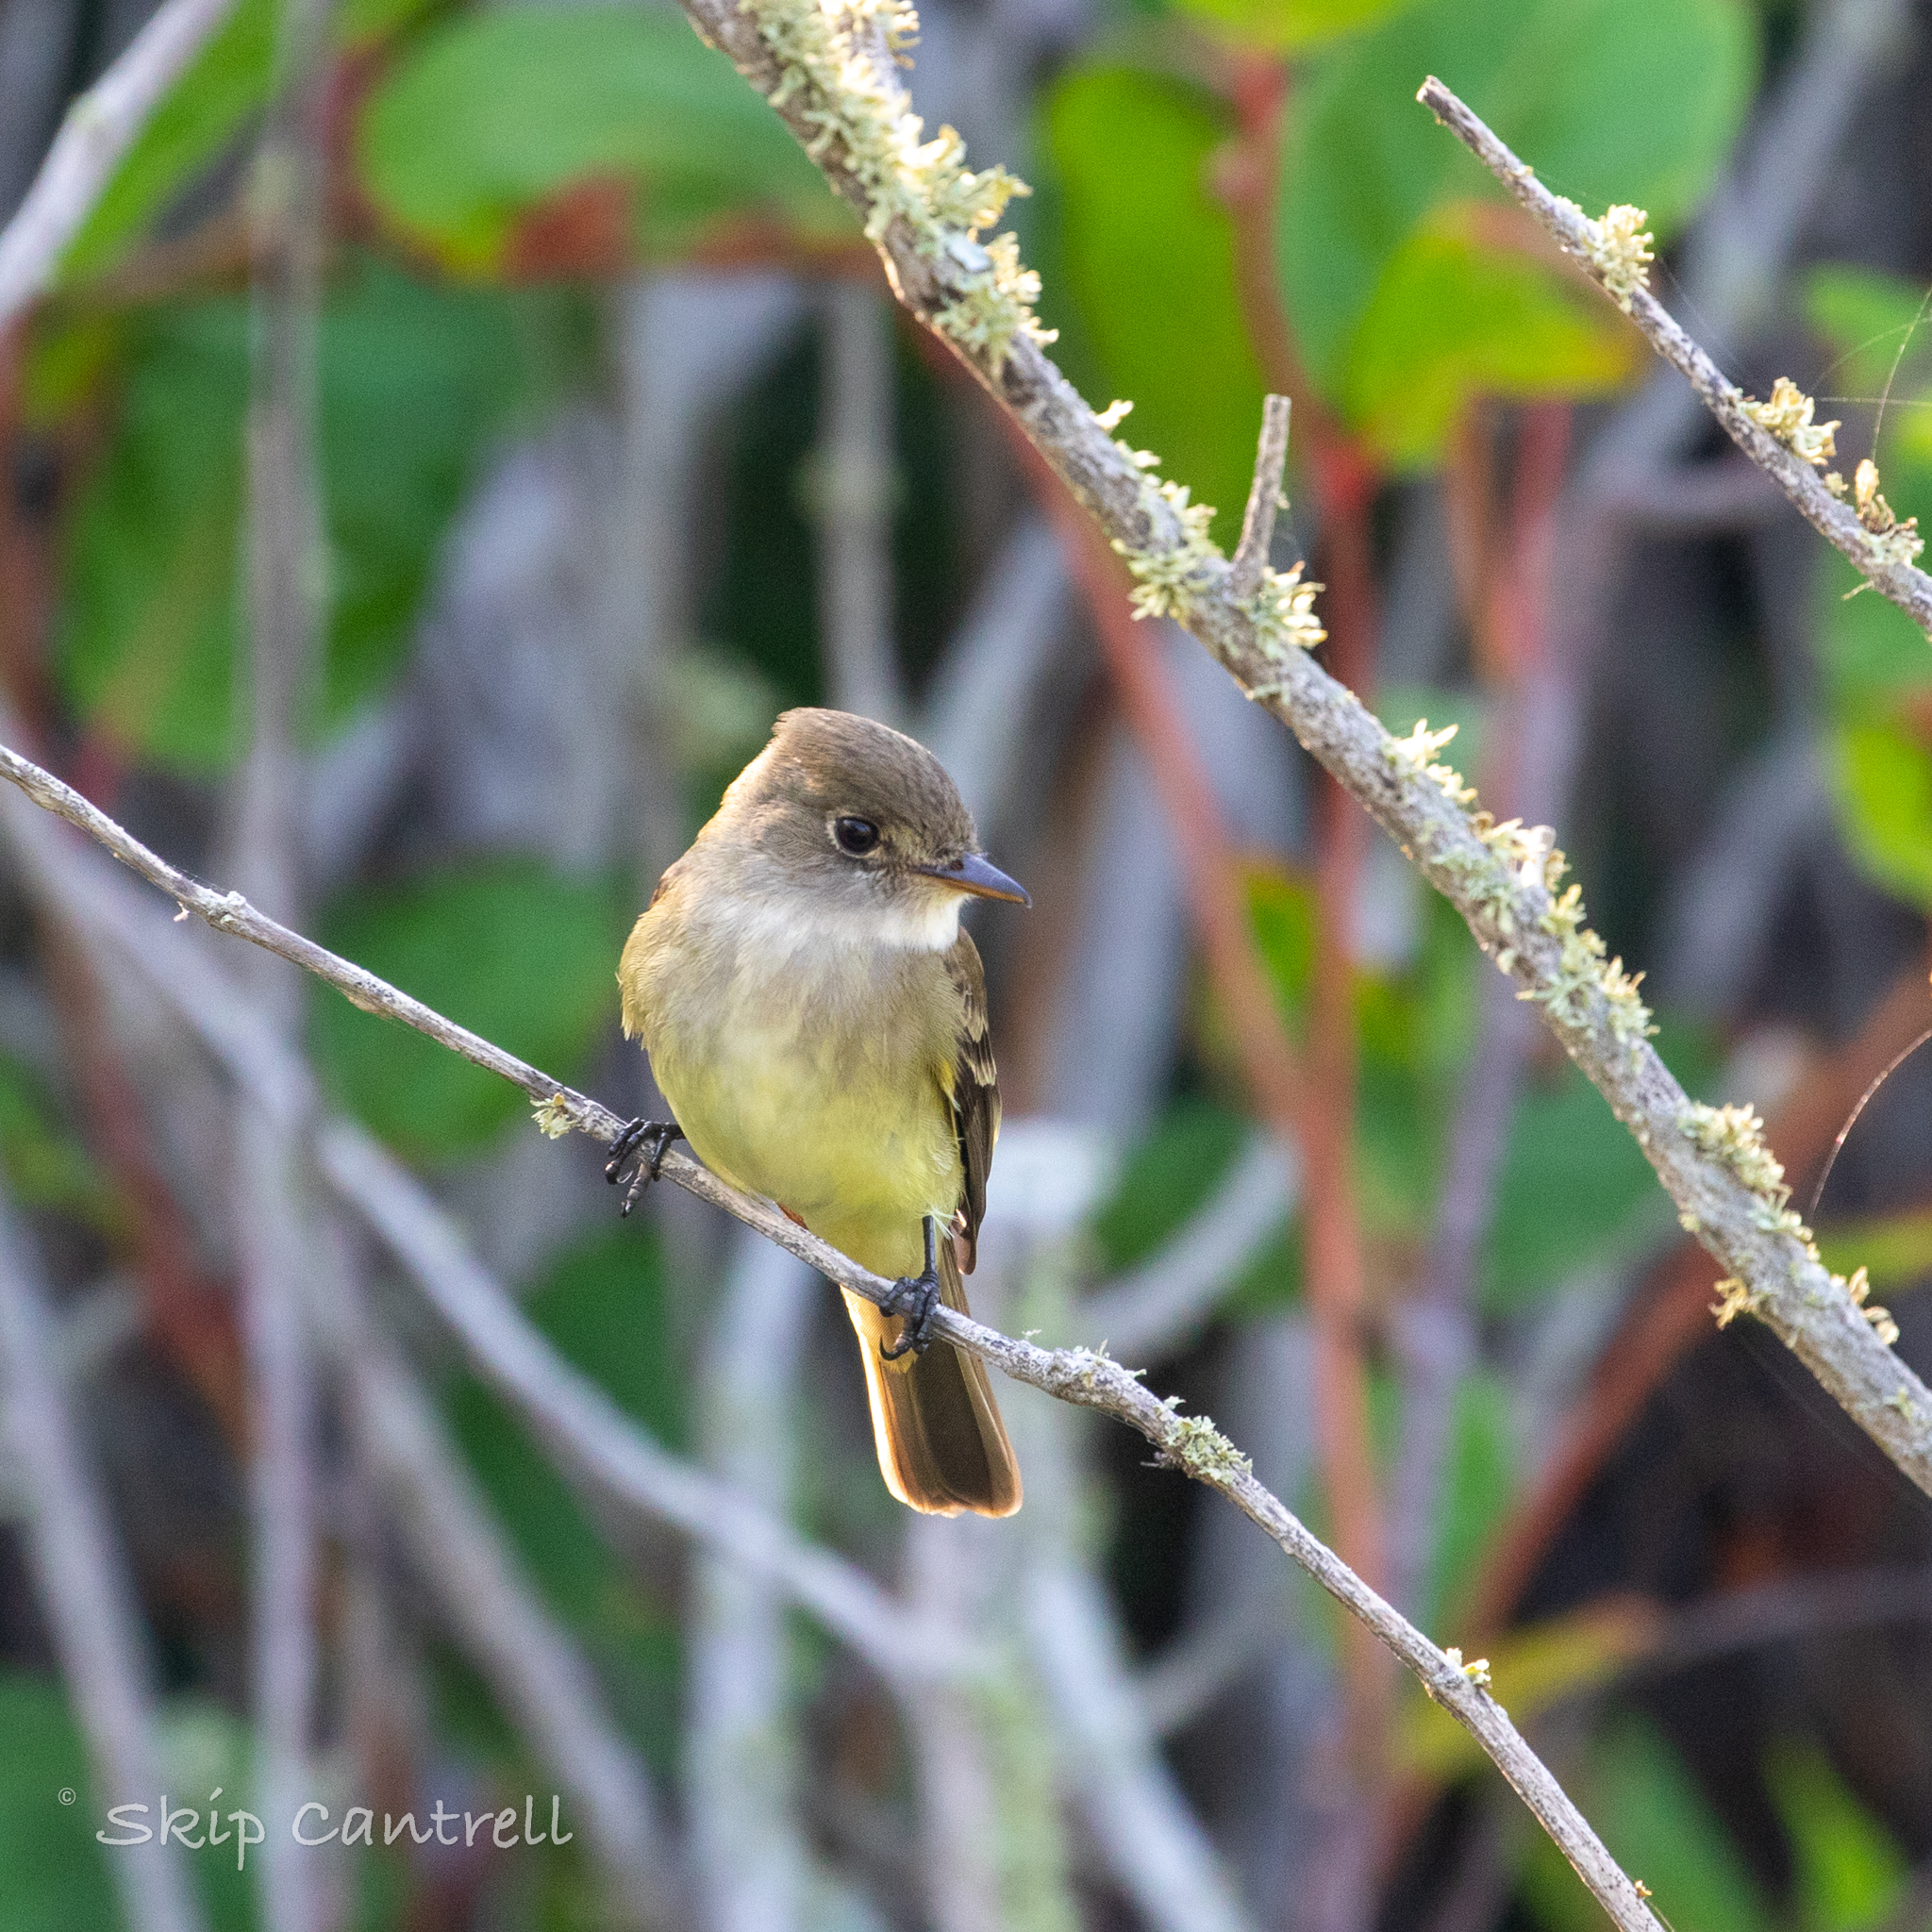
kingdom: Animalia
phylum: Chordata
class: Aves
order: Passeriformes
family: Tyrannidae
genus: Empidonax
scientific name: Empidonax traillii
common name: Willow flycatcher
